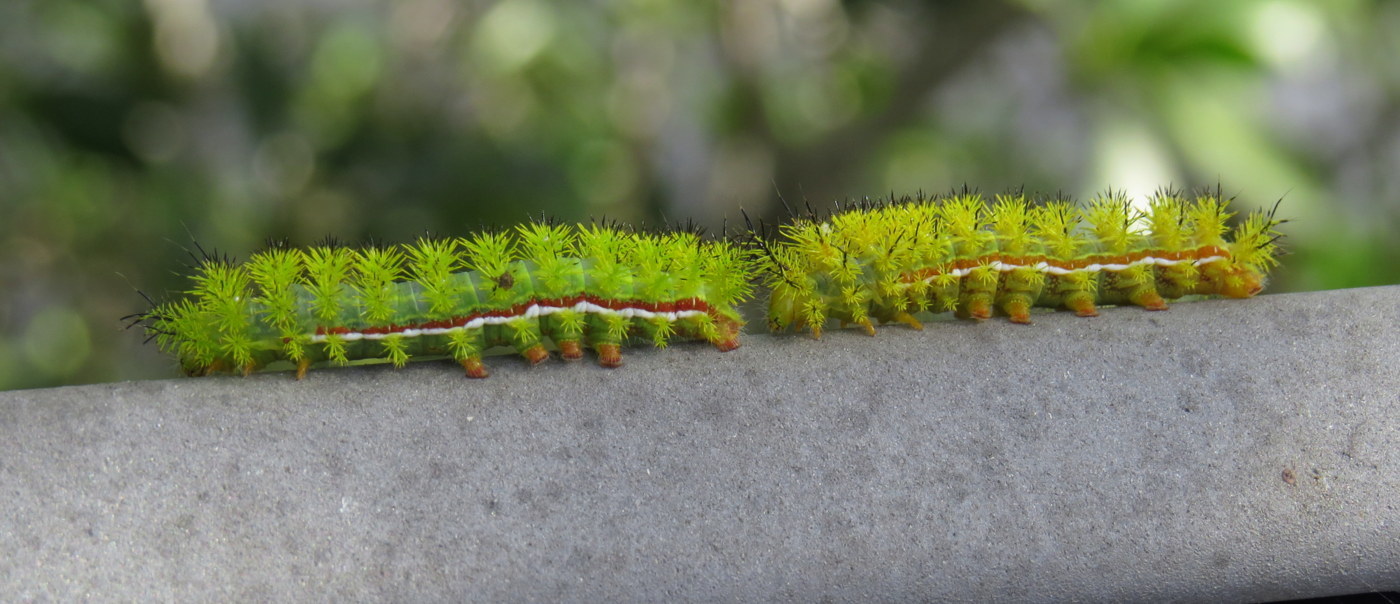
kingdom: Animalia
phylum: Arthropoda
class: Insecta
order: Lepidoptera
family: Saturniidae
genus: Automeris
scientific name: Automeris io
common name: Io moth
